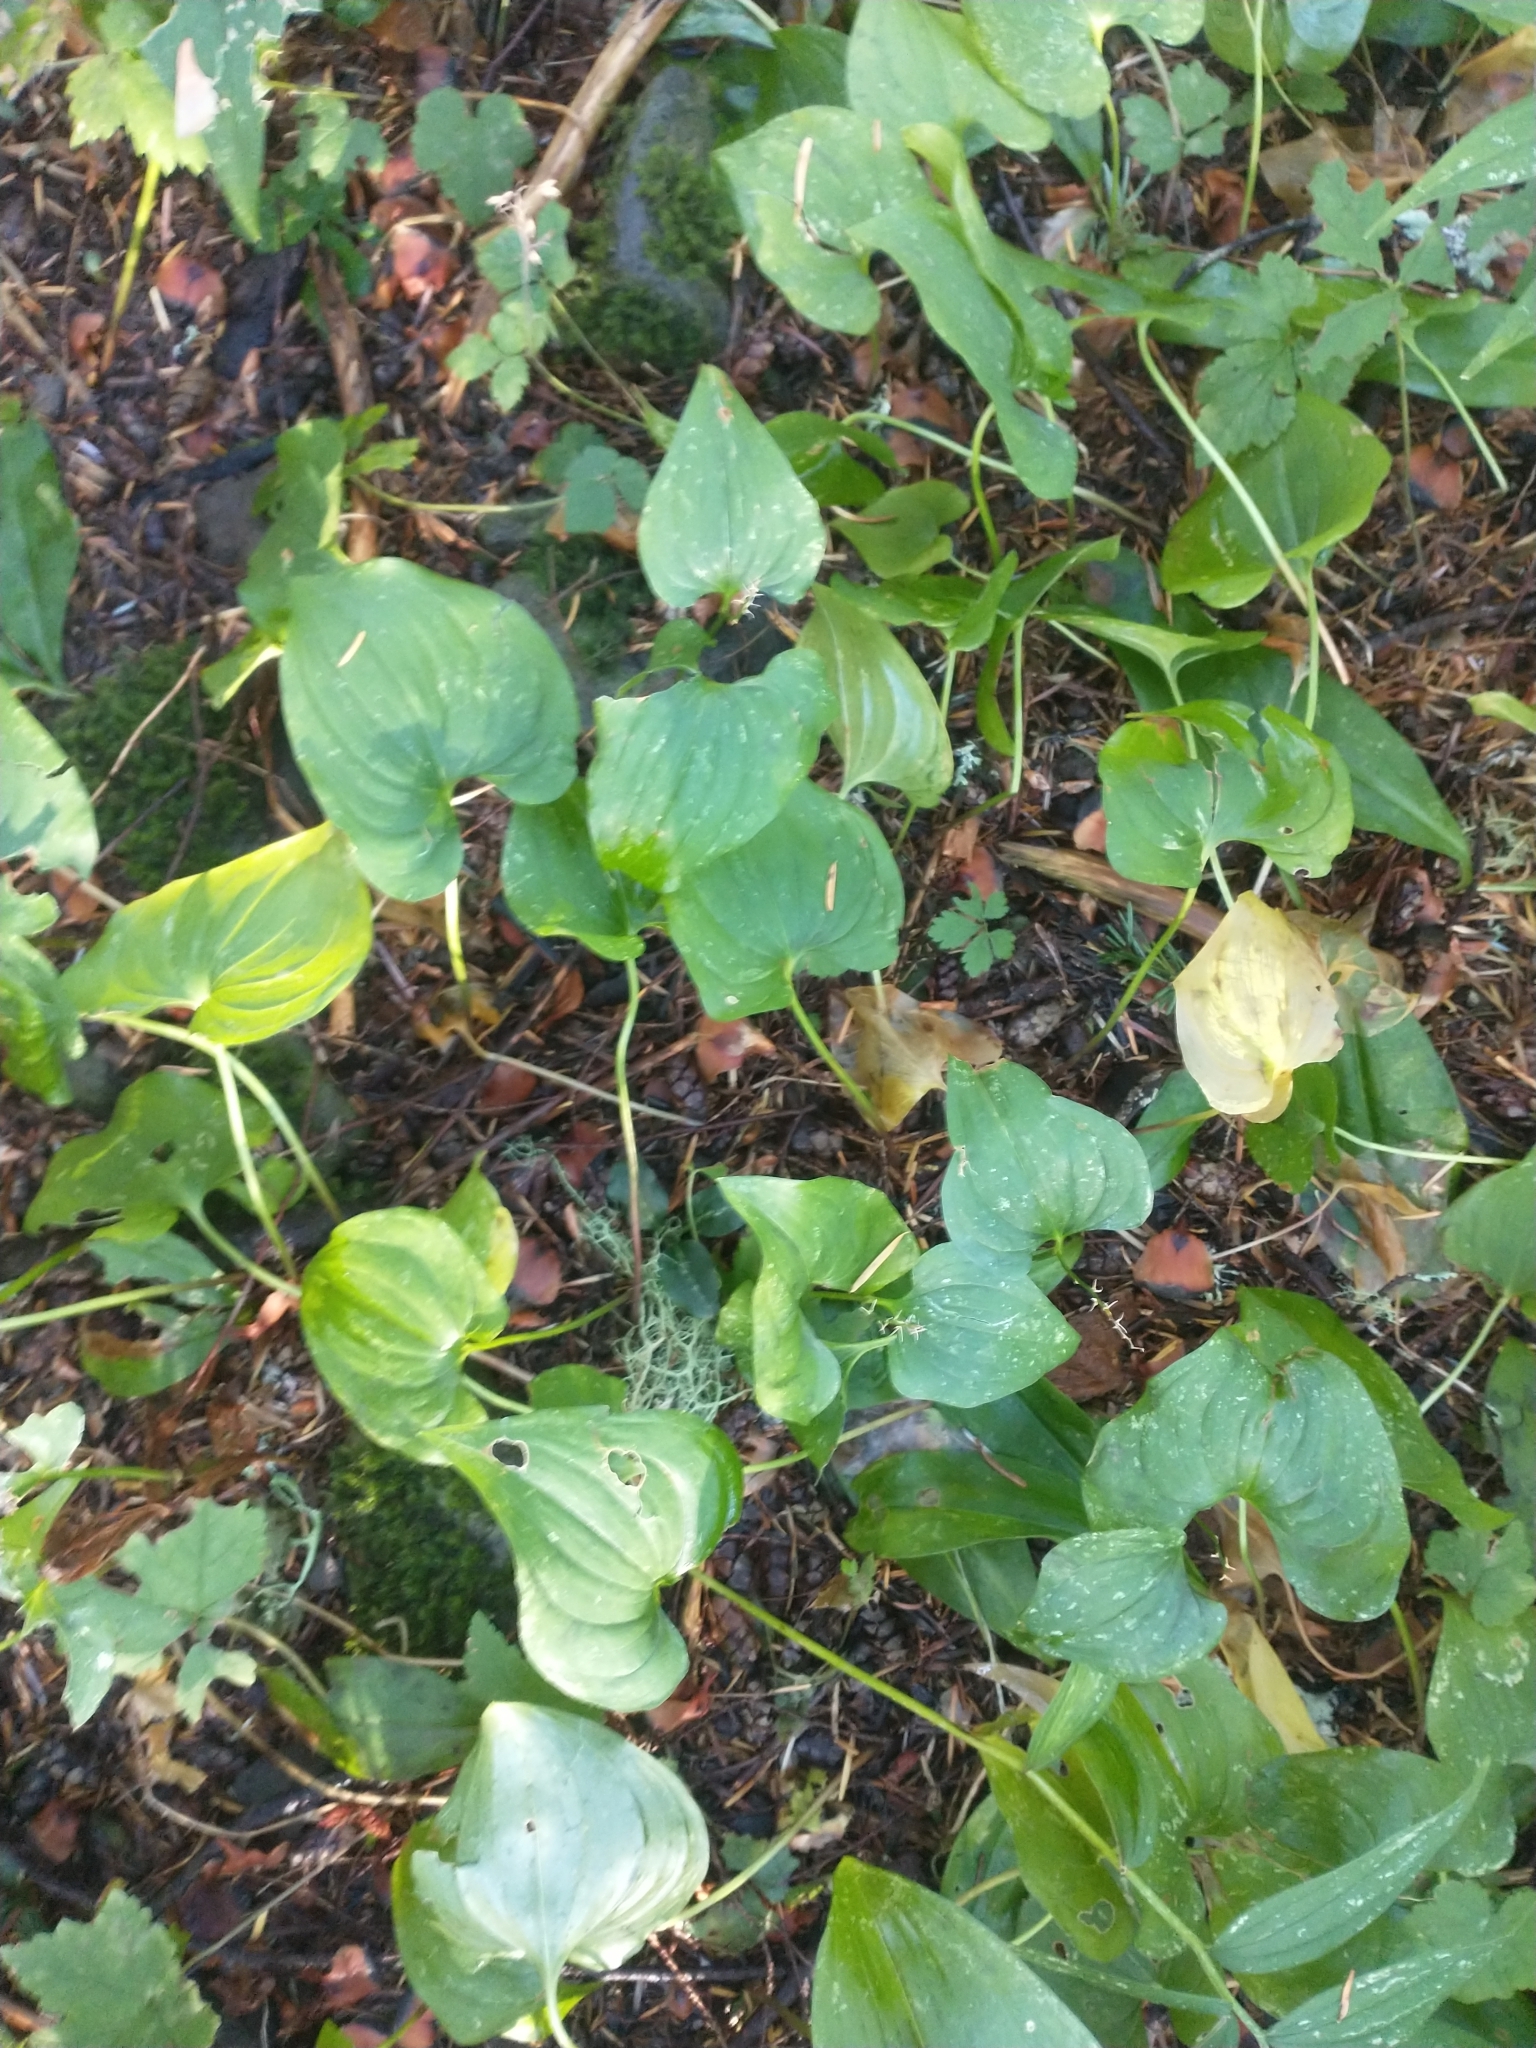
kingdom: Plantae
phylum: Tracheophyta
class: Liliopsida
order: Asparagales
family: Asparagaceae
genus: Maianthemum
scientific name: Maianthemum dilatatum
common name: False lily-of-the-valley
